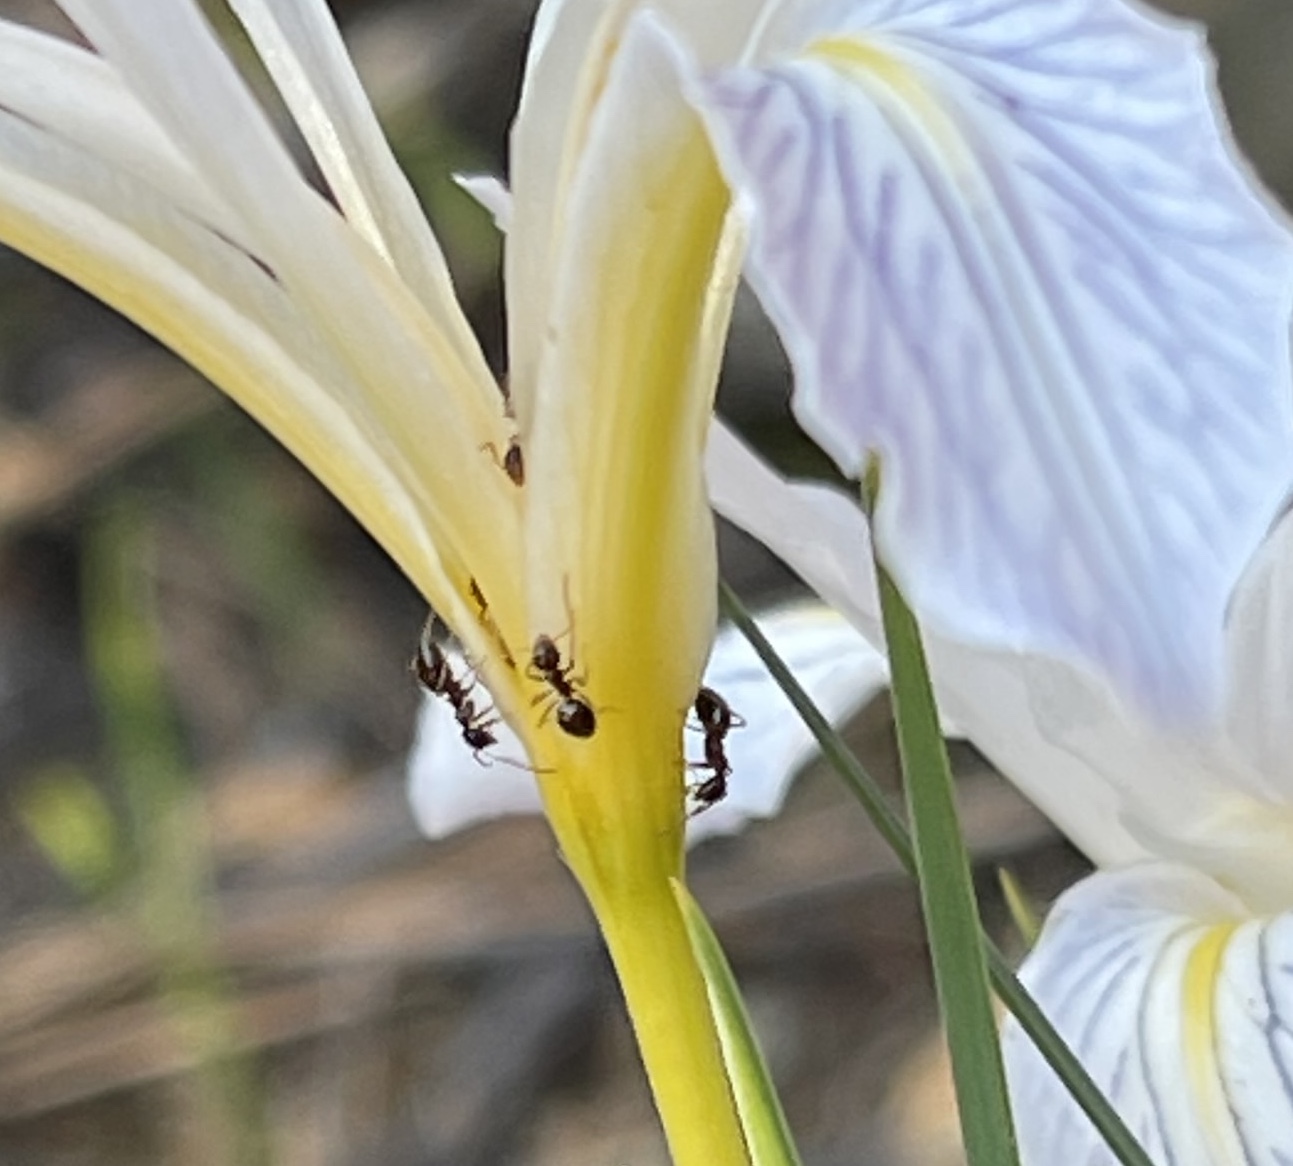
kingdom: Animalia
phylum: Arthropoda
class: Insecta
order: Hymenoptera
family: Formicidae
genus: Prenolepis
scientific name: Prenolepis imparis
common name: Small honey ant
